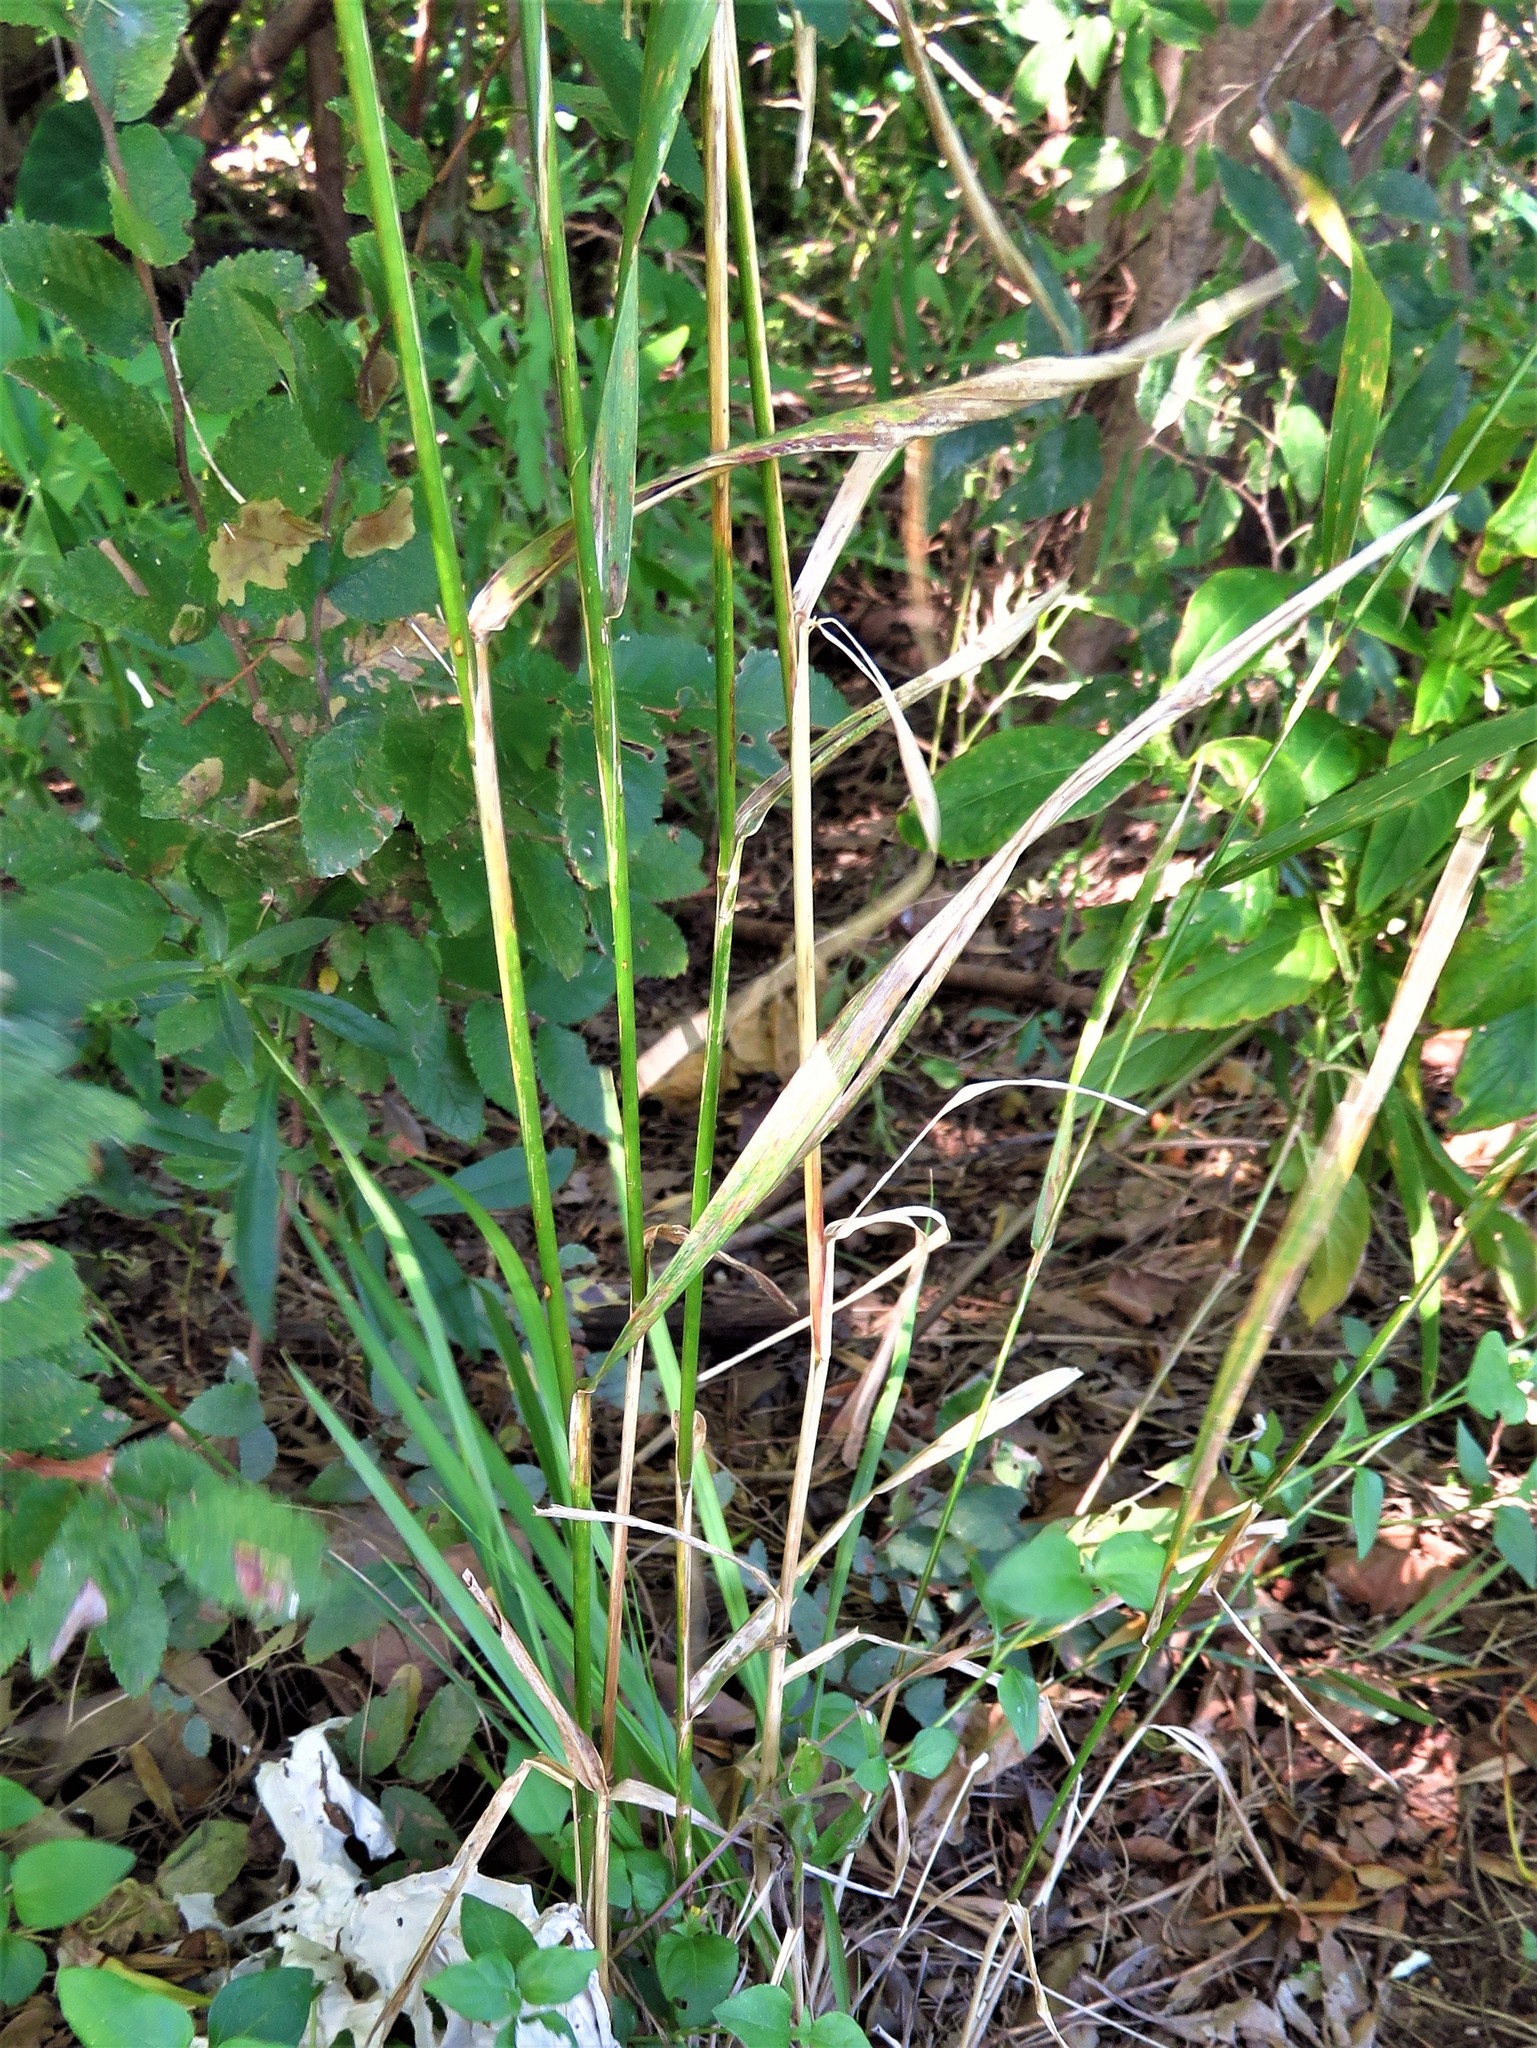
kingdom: Plantae
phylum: Tracheophyta
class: Liliopsida
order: Poales
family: Poaceae
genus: Elymus
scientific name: Elymus virginicus
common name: Common eastern wildrye
